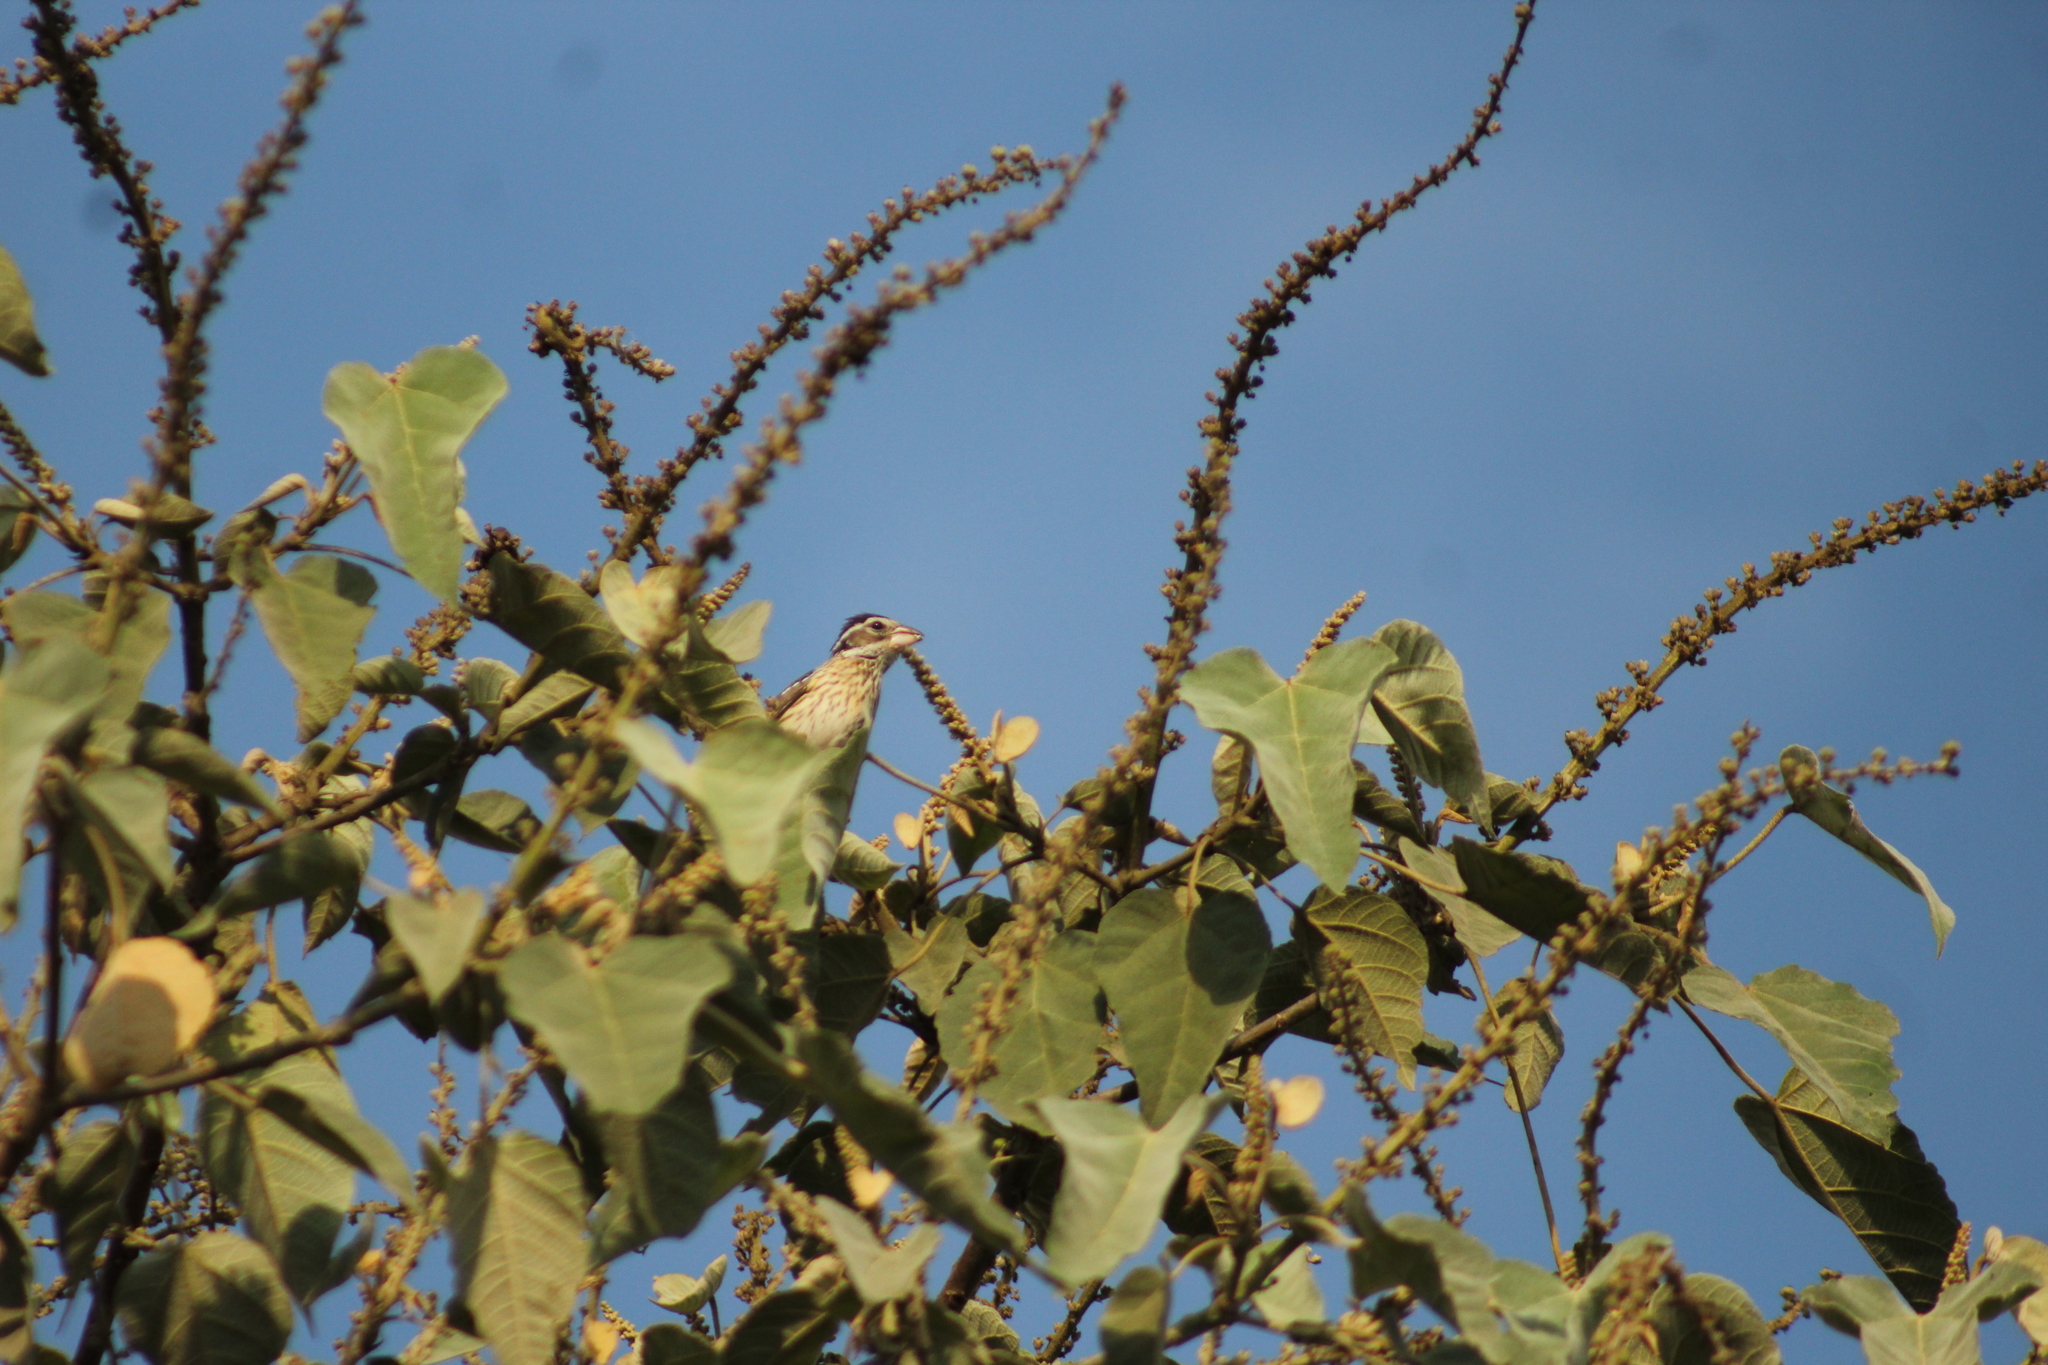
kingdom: Animalia
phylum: Chordata
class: Aves
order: Passeriformes
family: Cardinalidae
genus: Pheucticus
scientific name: Pheucticus ludovicianus
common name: Rose-breasted grosbeak
